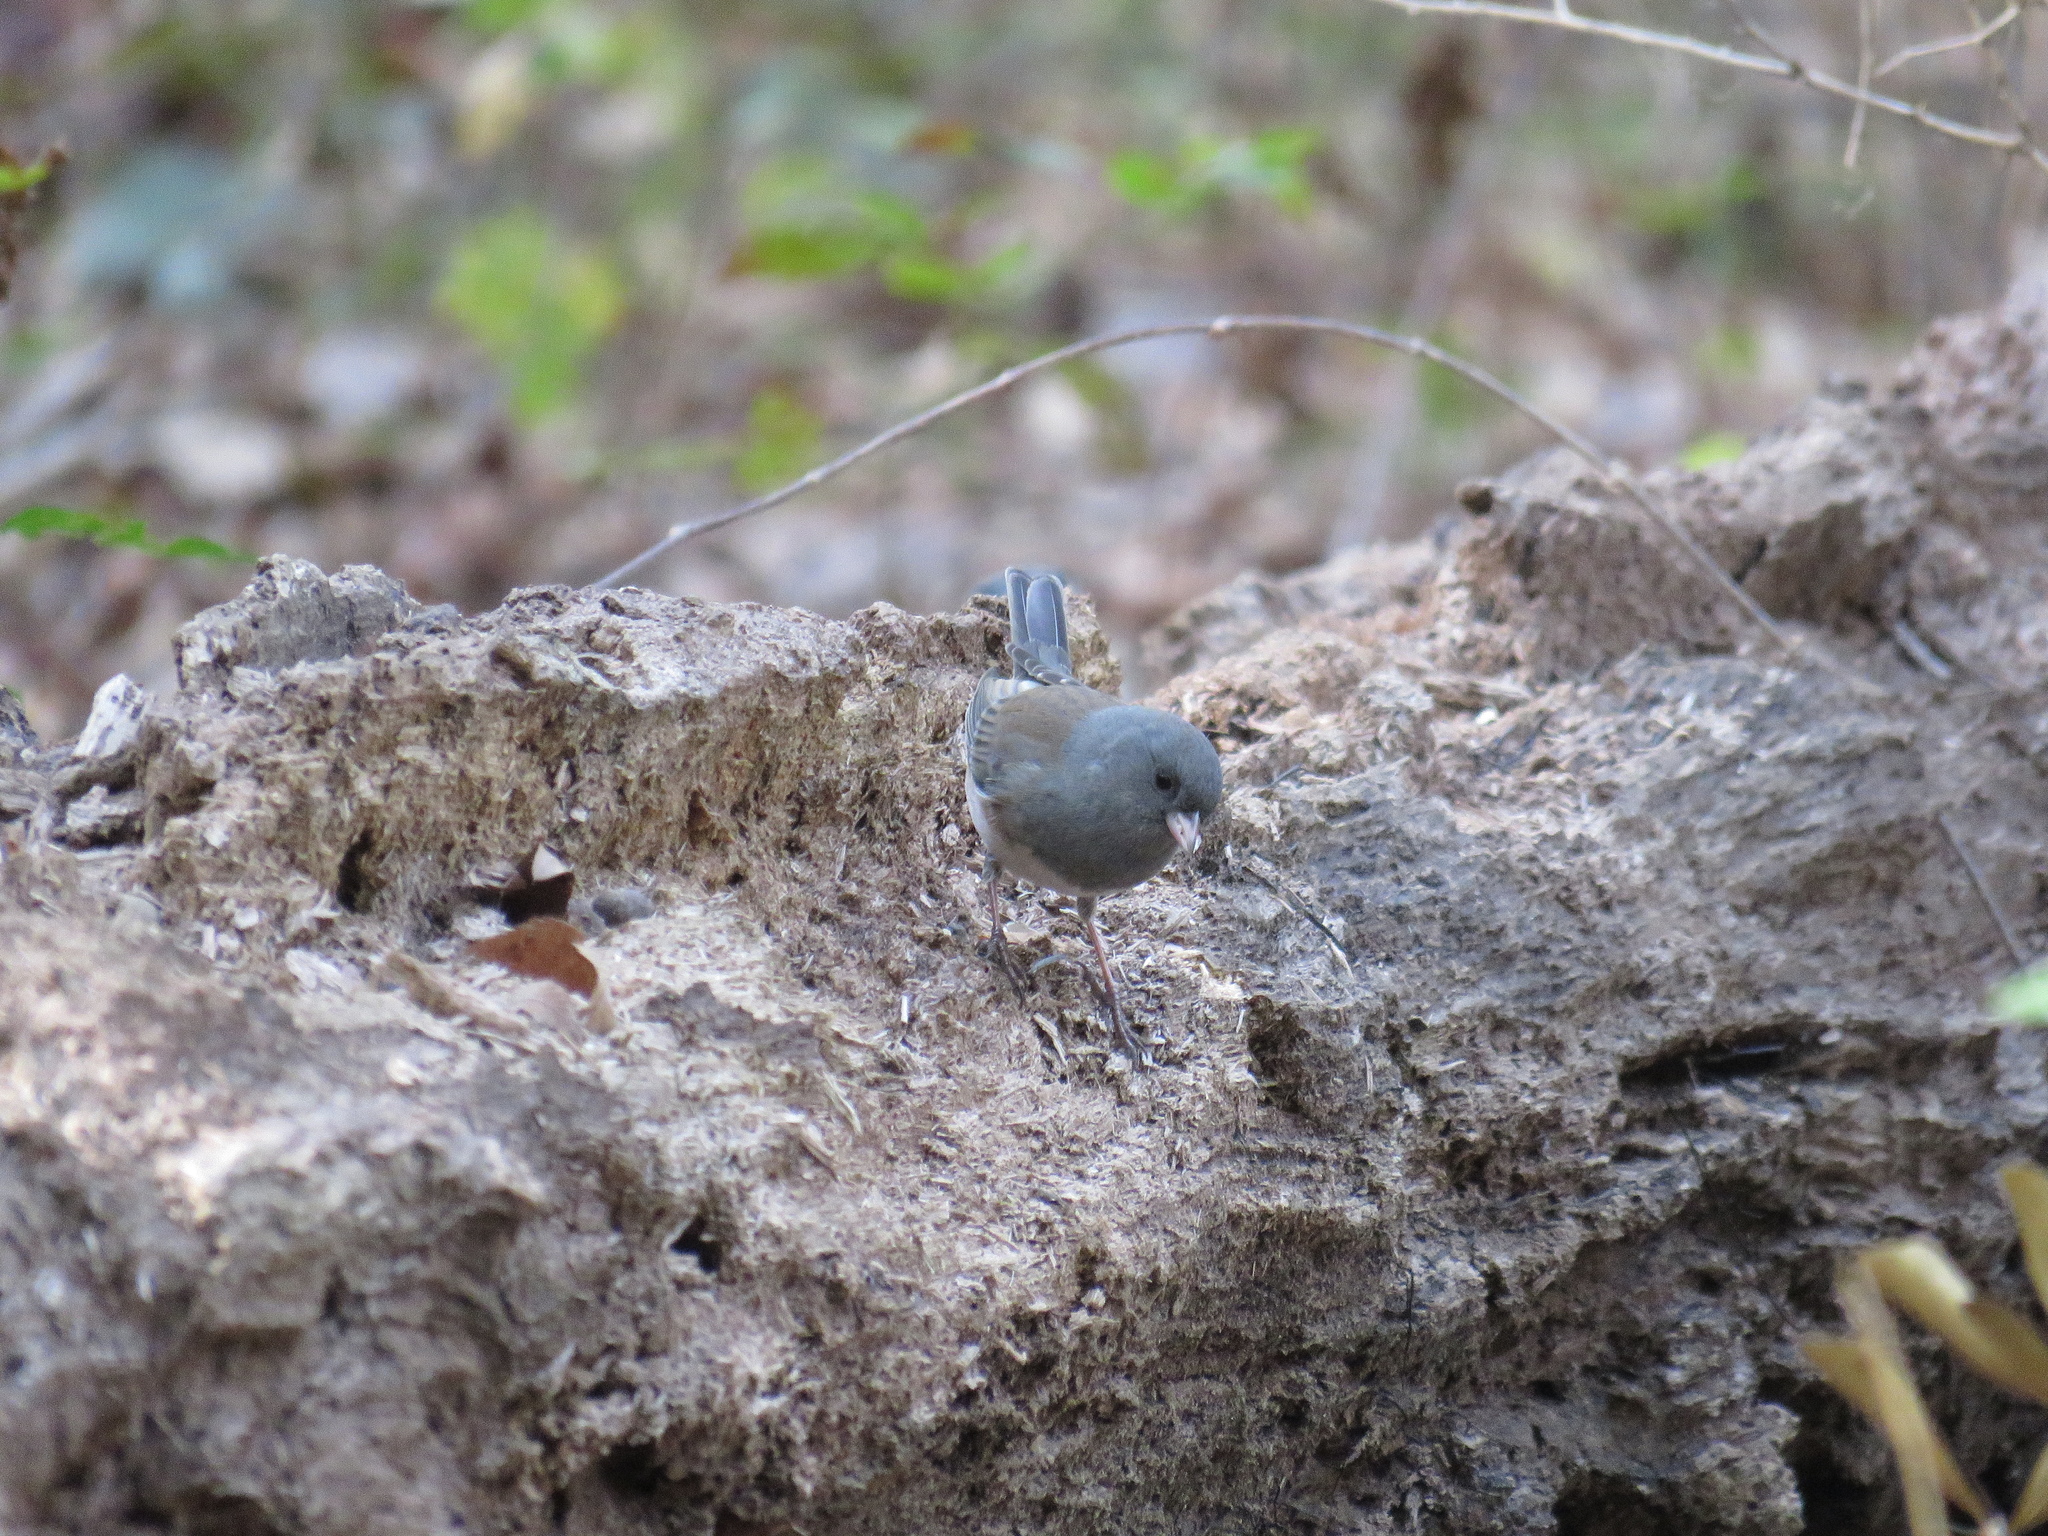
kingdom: Animalia
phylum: Chordata
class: Aves
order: Passeriformes
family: Passerellidae
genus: Junco
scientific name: Junco hyemalis
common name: Dark-eyed junco
